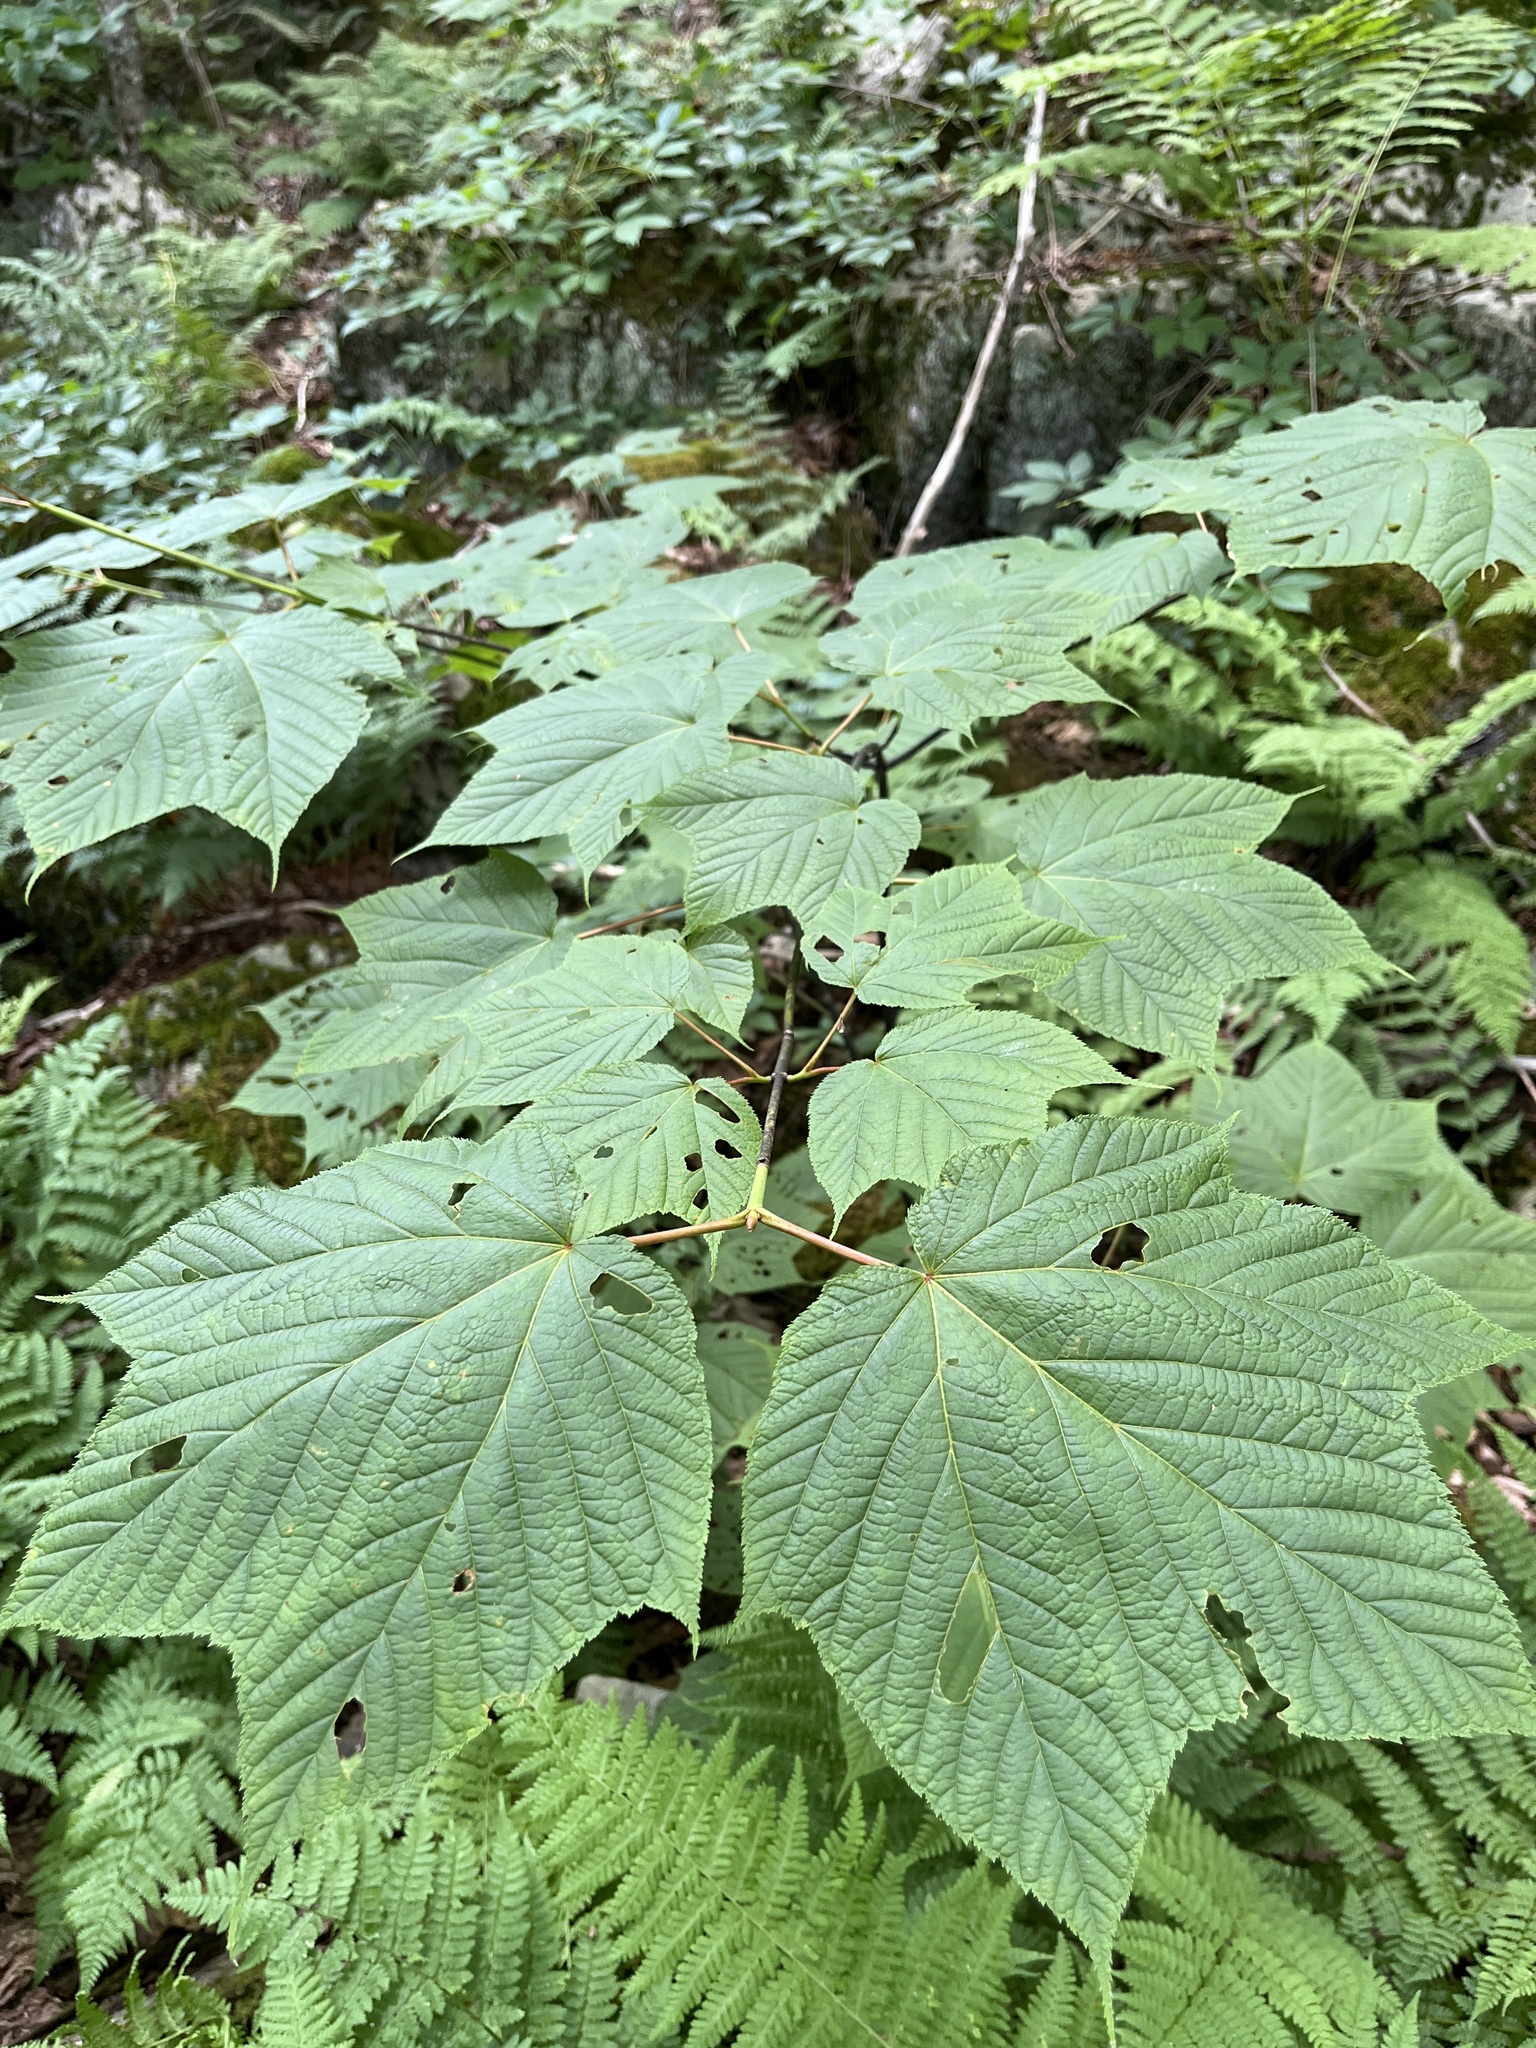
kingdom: Plantae
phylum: Tracheophyta
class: Magnoliopsida
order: Sapindales
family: Sapindaceae
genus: Acer
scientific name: Acer pensylvanicum
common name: Moosewood
